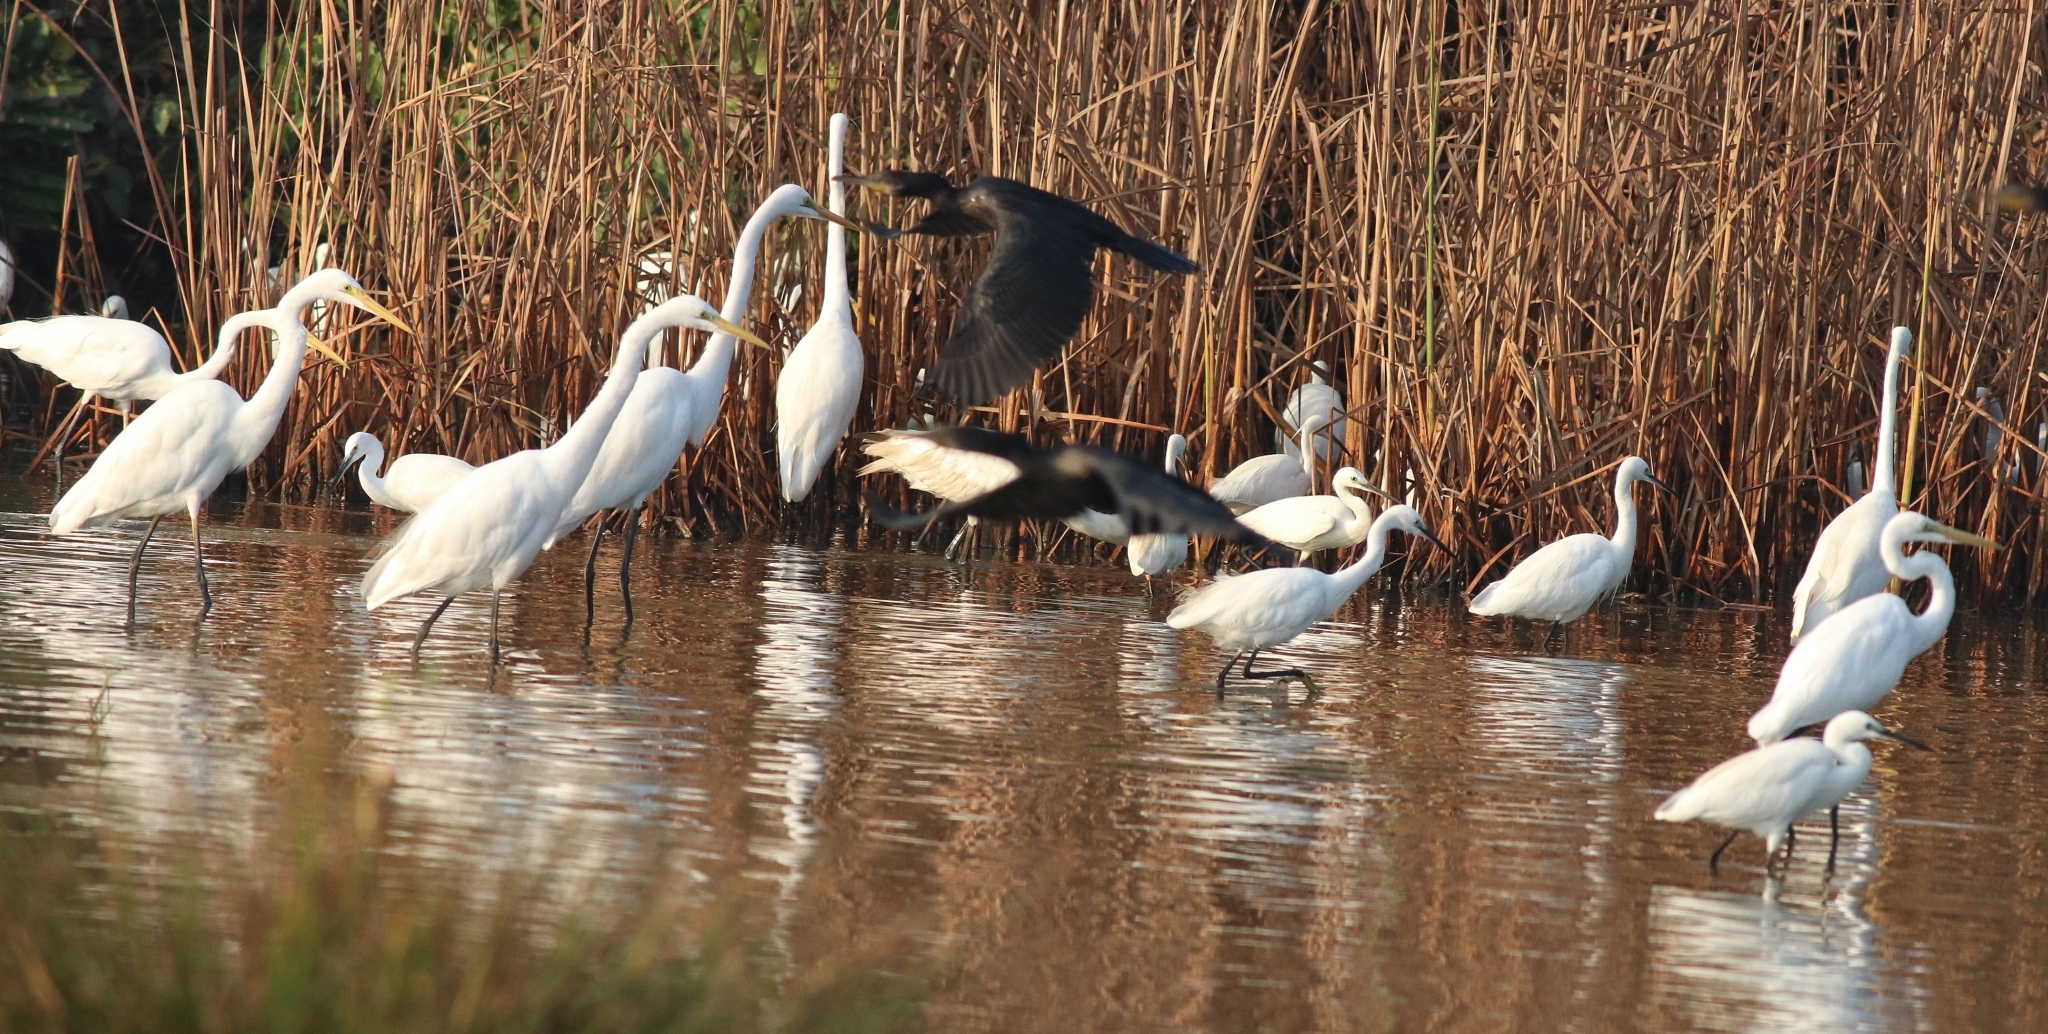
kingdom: Animalia
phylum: Chordata
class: Aves
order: Pelecaniformes
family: Ardeidae
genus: Egretta
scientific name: Egretta garzetta
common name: Little egret
